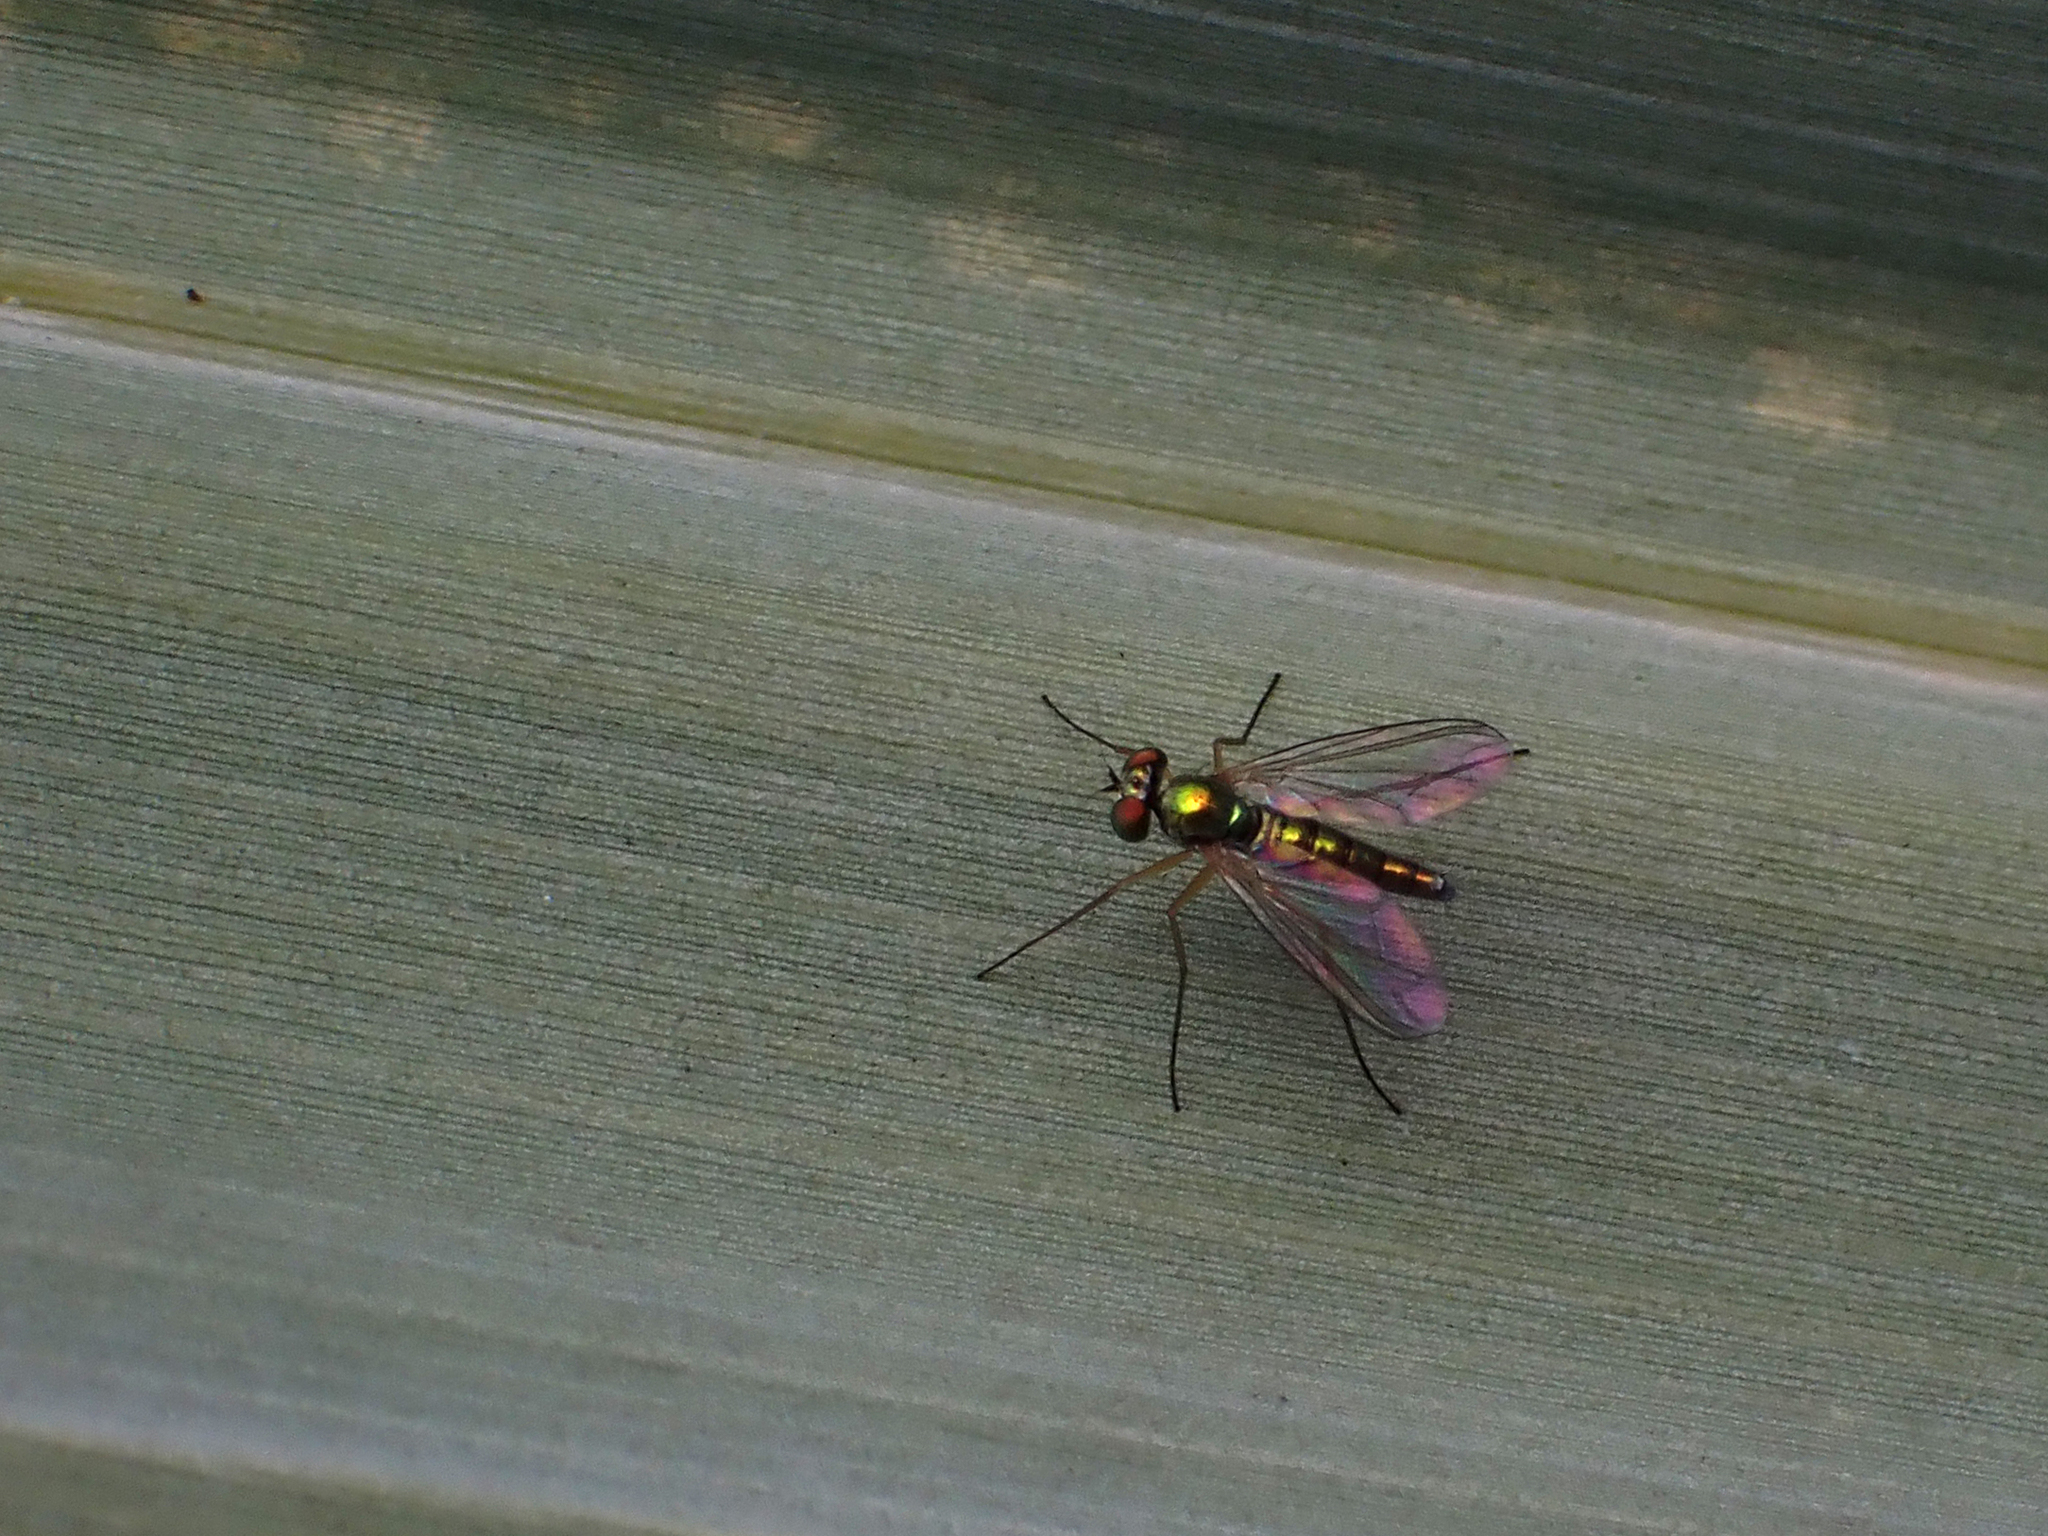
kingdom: Animalia
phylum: Arthropoda
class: Insecta
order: Diptera
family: Dolichopodidae
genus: Amblypsilopus
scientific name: Amblypsilopus costalis
